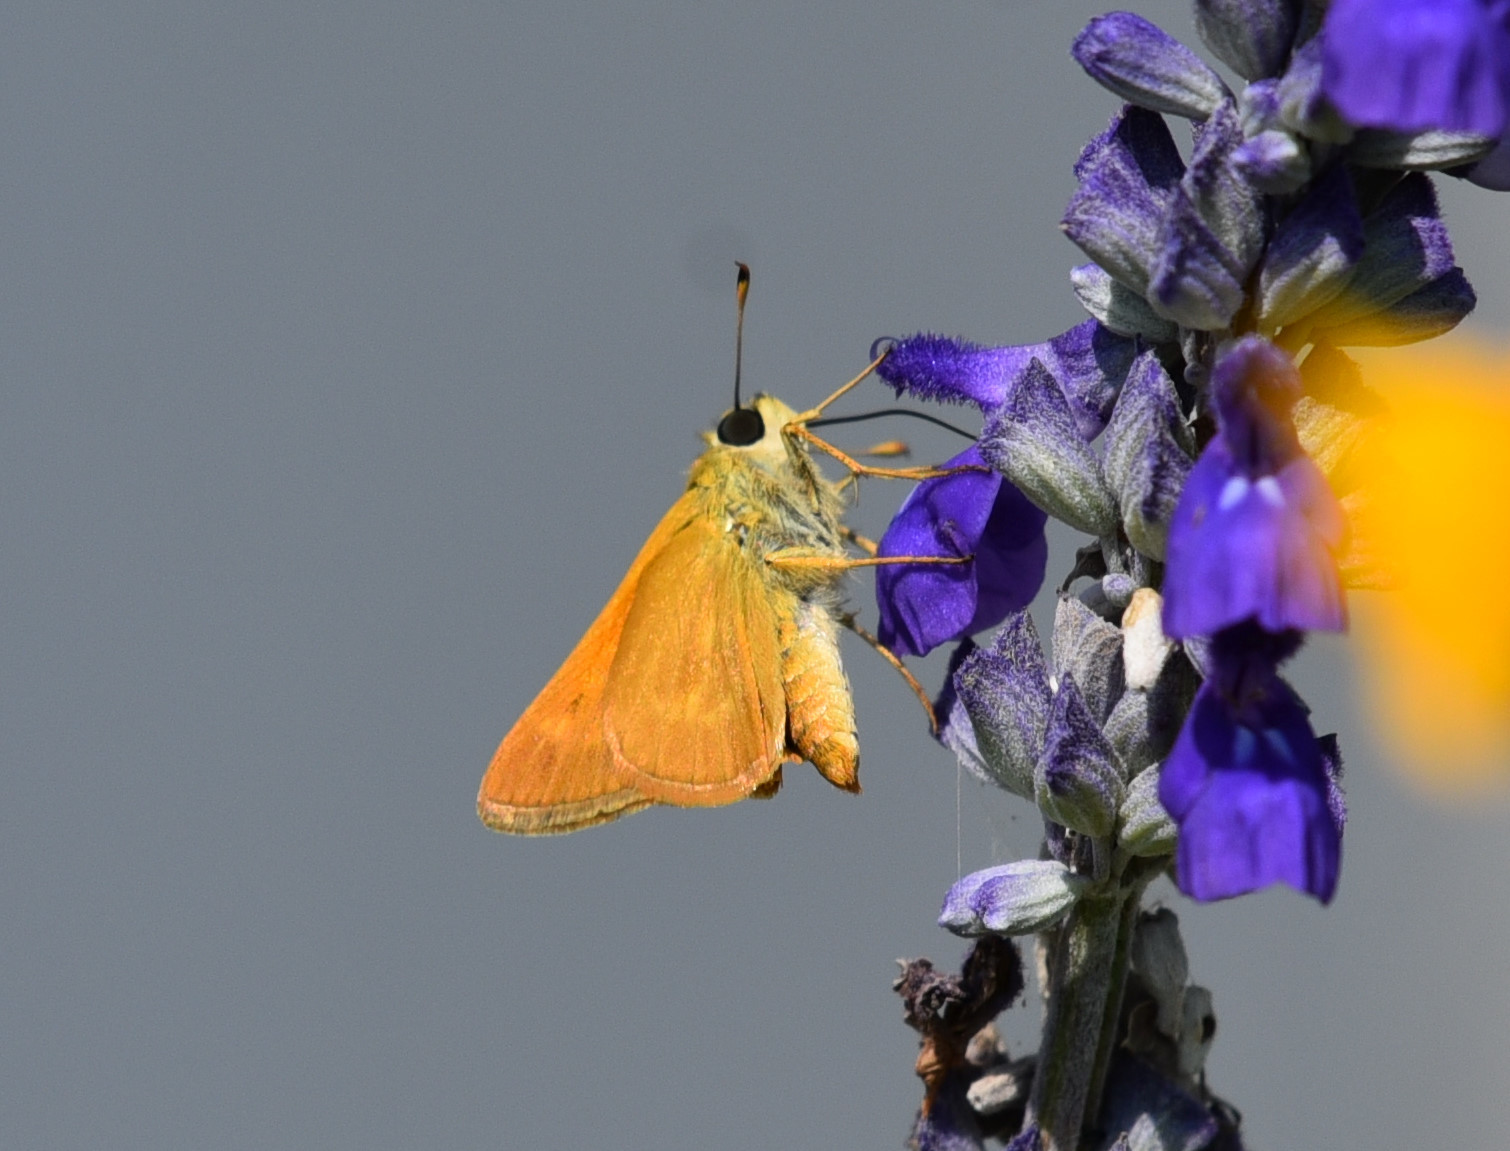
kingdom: Animalia
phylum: Arthropoda
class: Insecta
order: Lepidoptera
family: Hesperiidae
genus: Polites
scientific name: Polites otho
